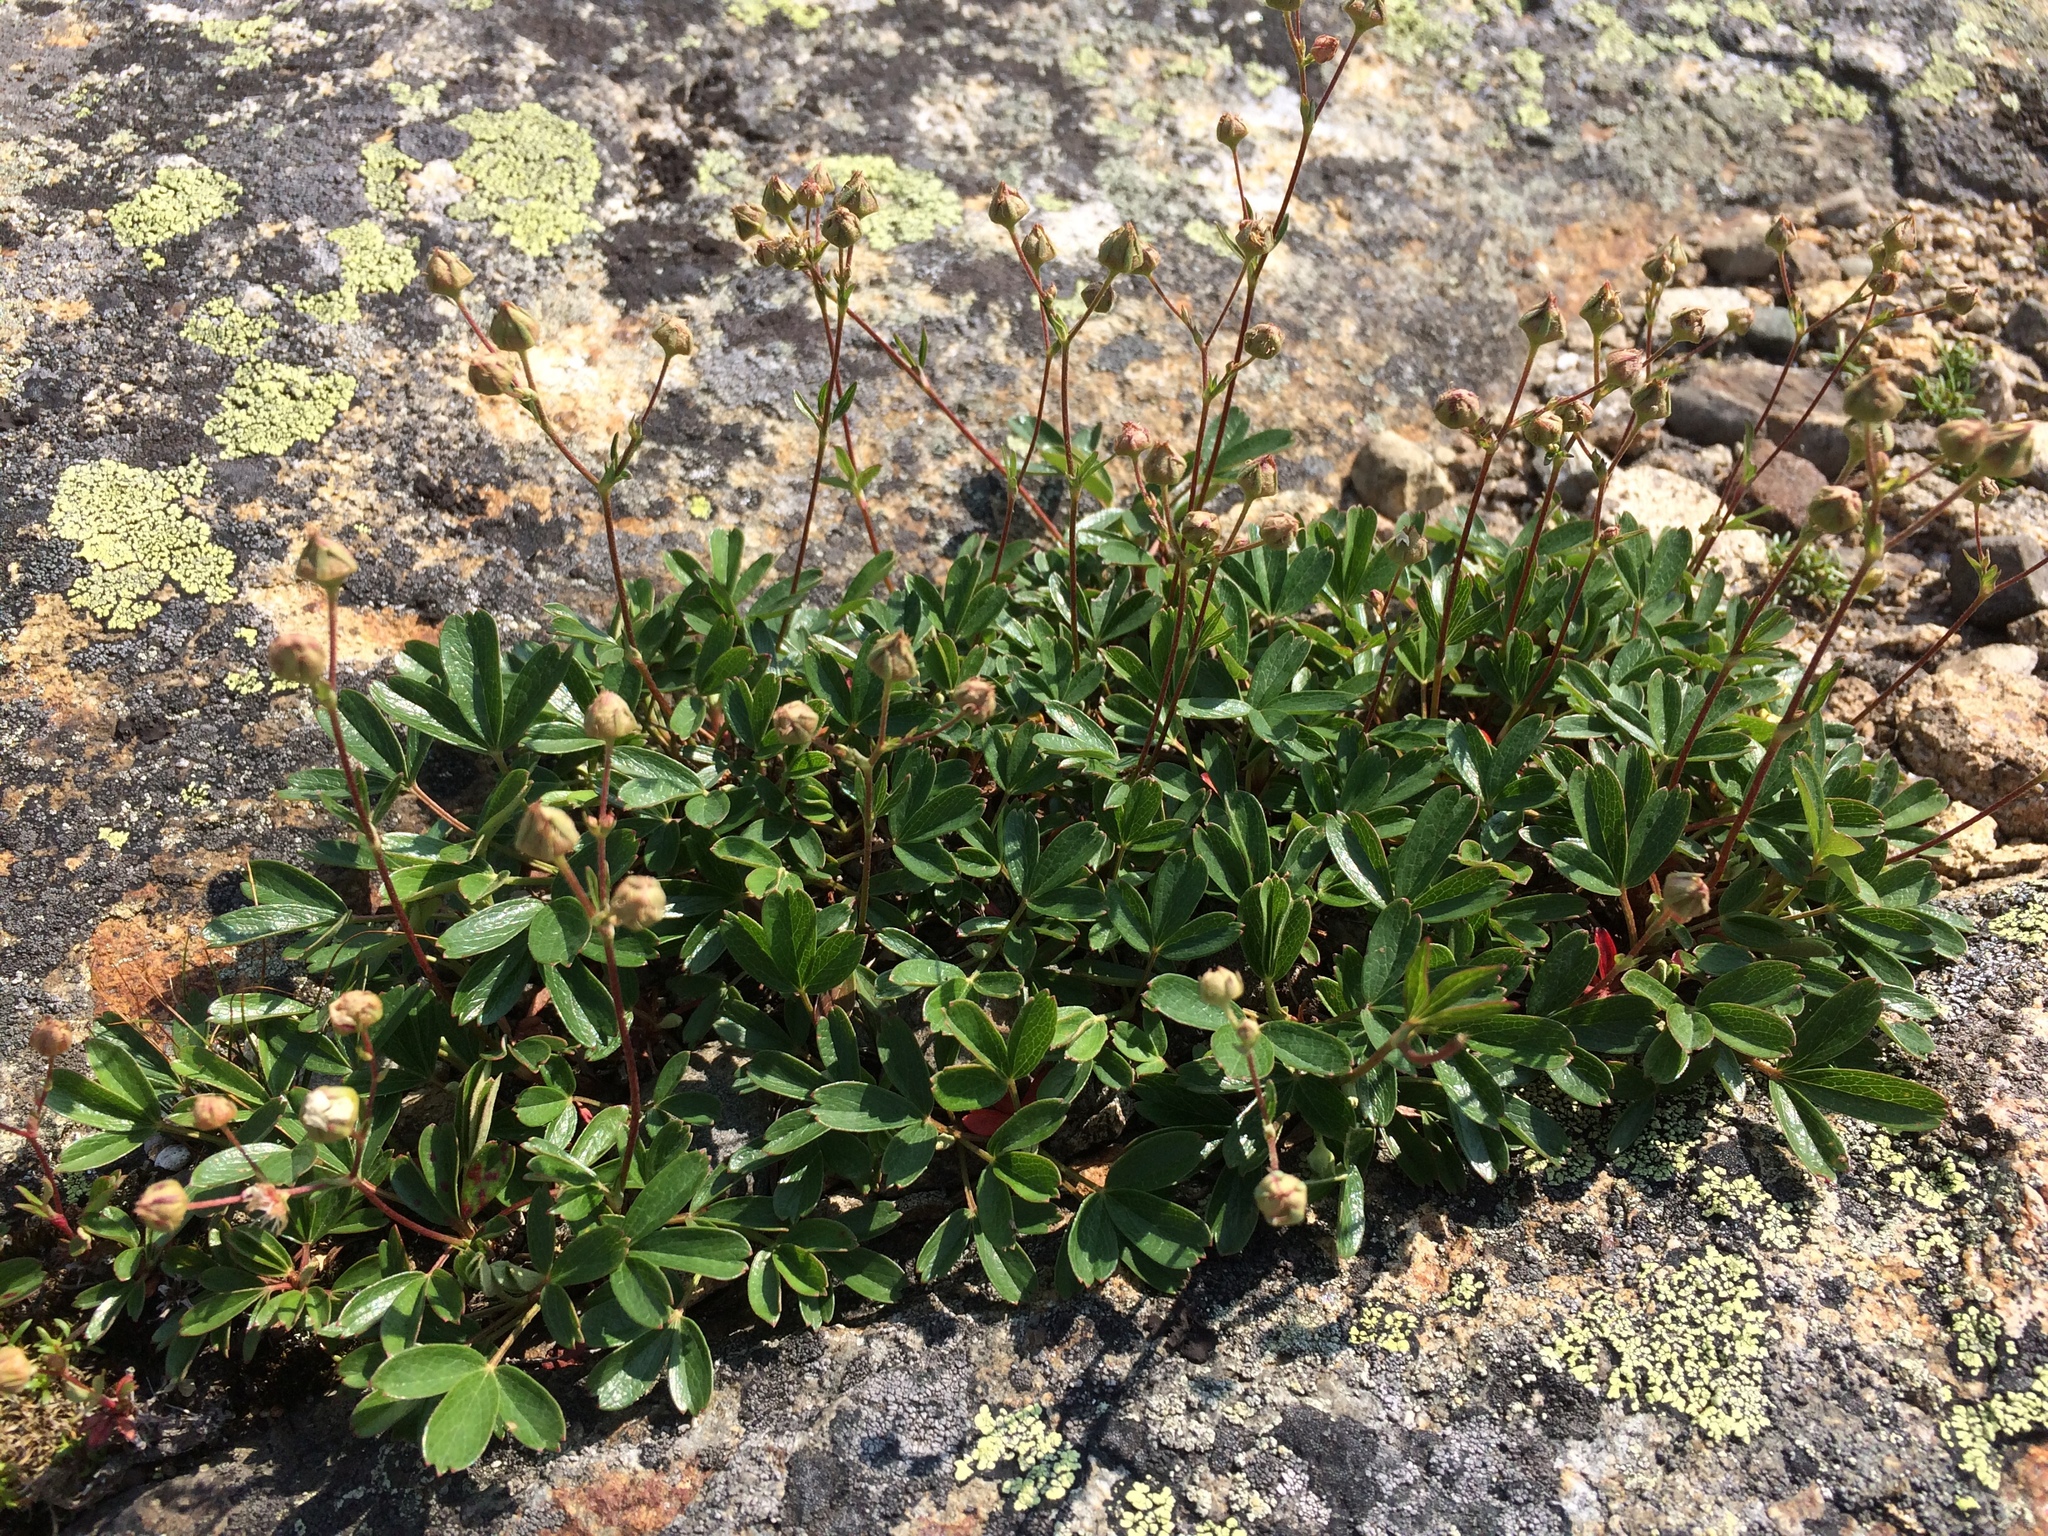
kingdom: Plantae
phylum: Tracheophyta
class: Magnoliopsida
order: Rosales
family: Rosaceae
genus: Sibbaldia
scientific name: Sibbaldia tridentata
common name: Three-toothed cinquefoil
